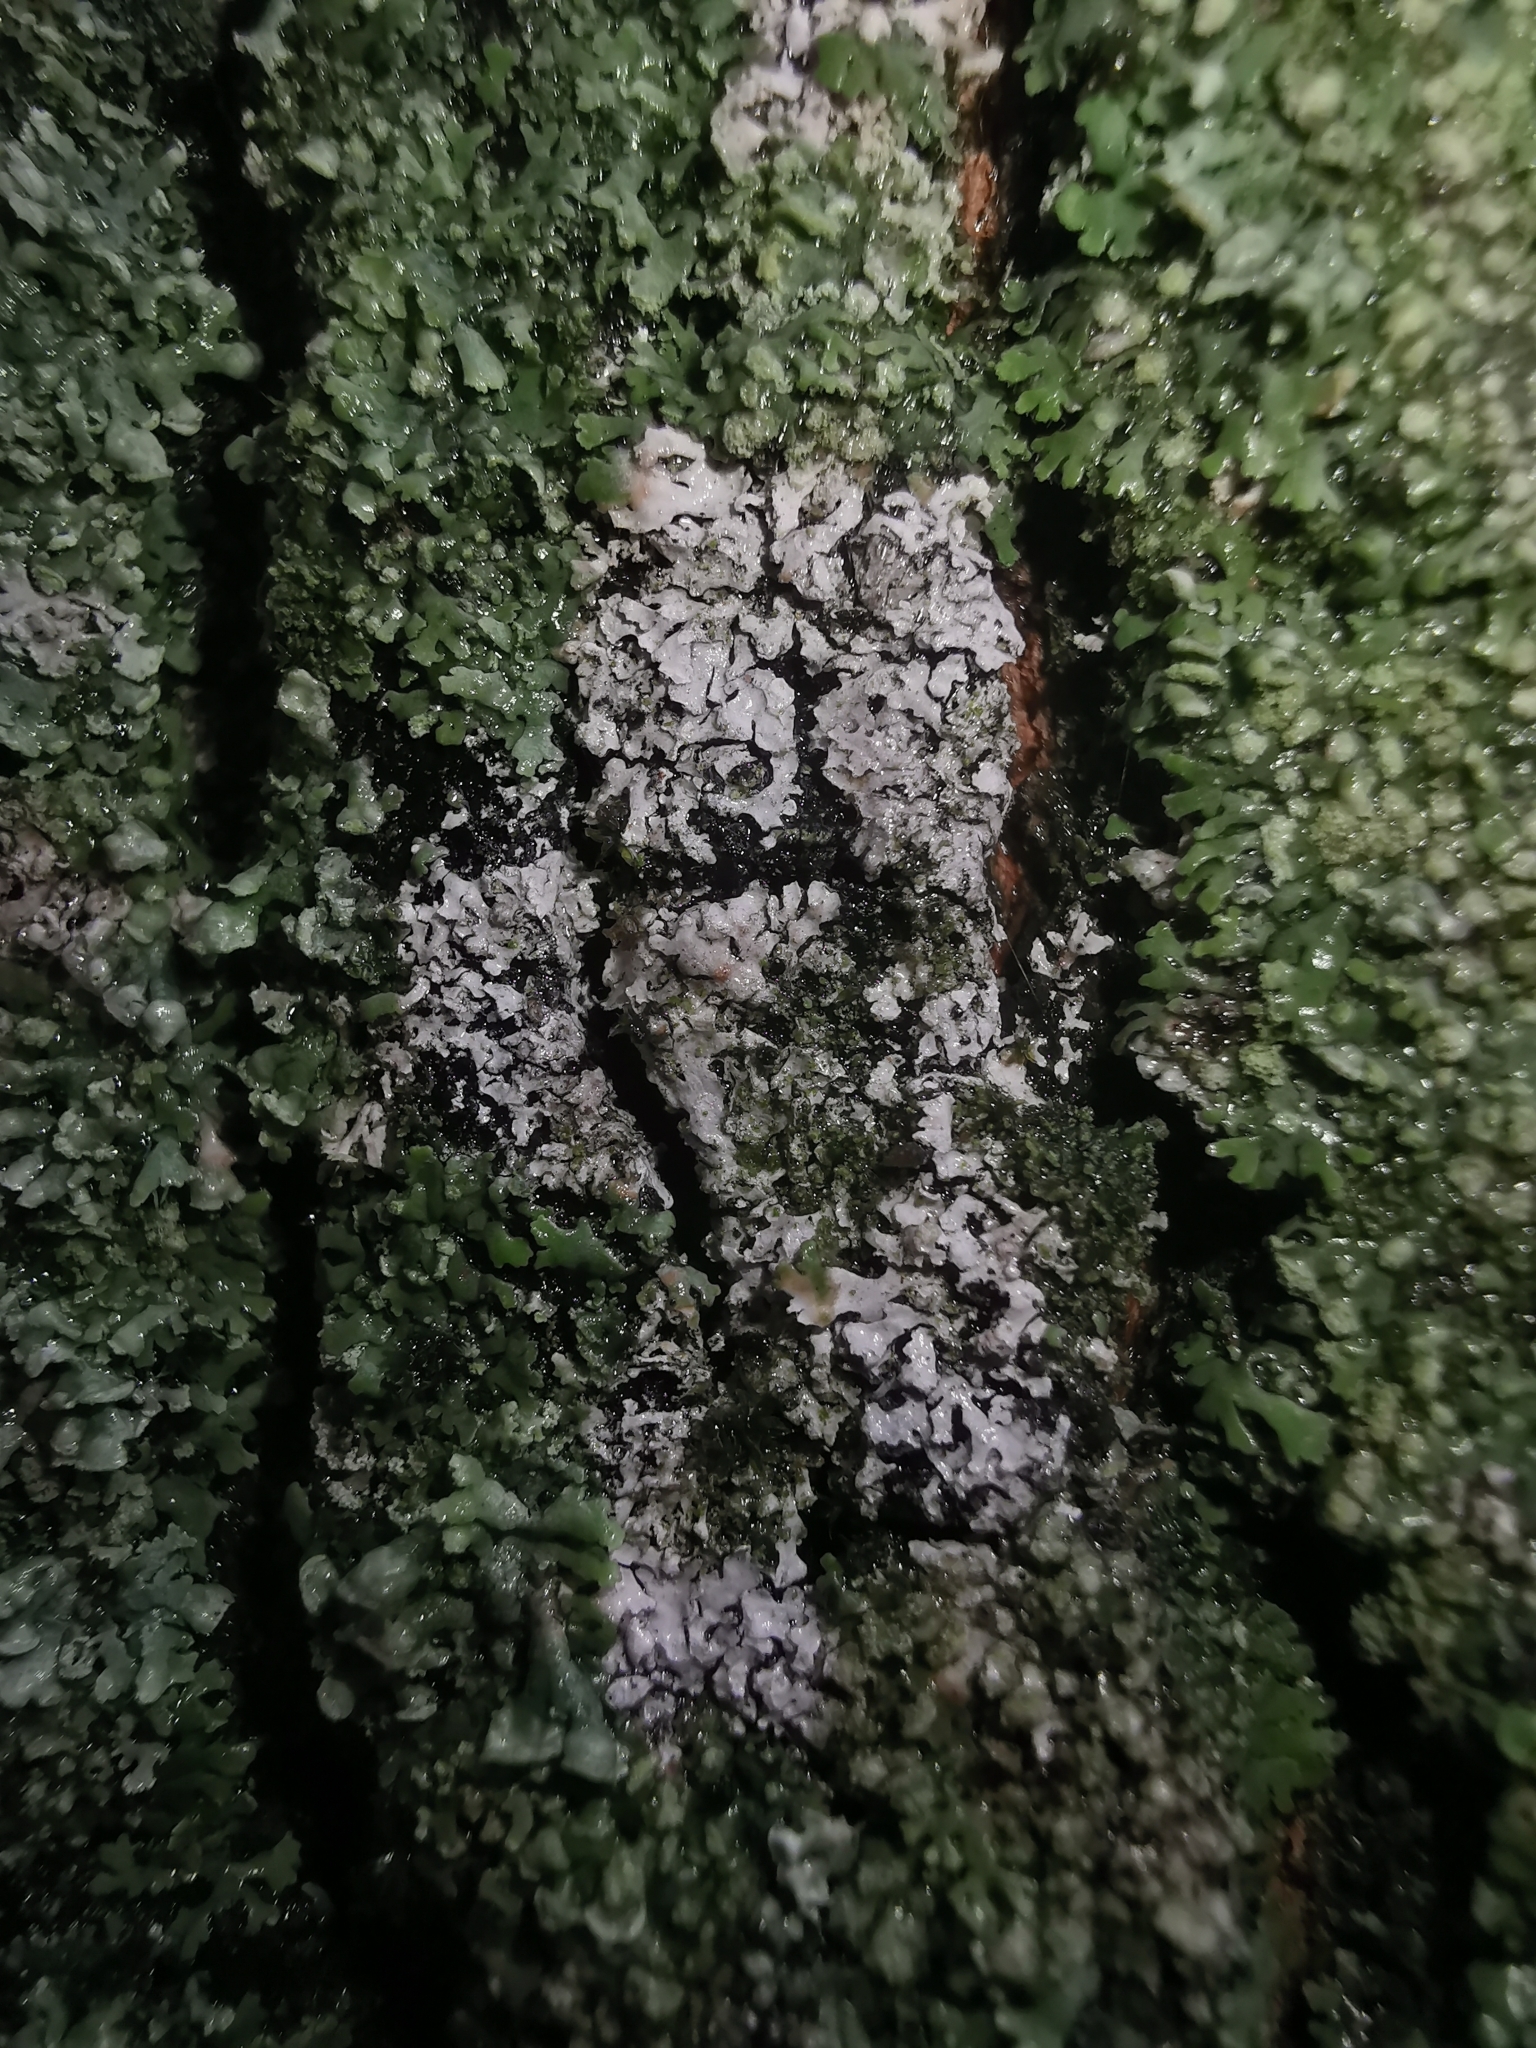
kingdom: Fungi
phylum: Basidiomycota
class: Agaricomycetes
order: Atheliales
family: Atheliaceae
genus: Athelia
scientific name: Athelia arachnoidea
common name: Candelabra duster
